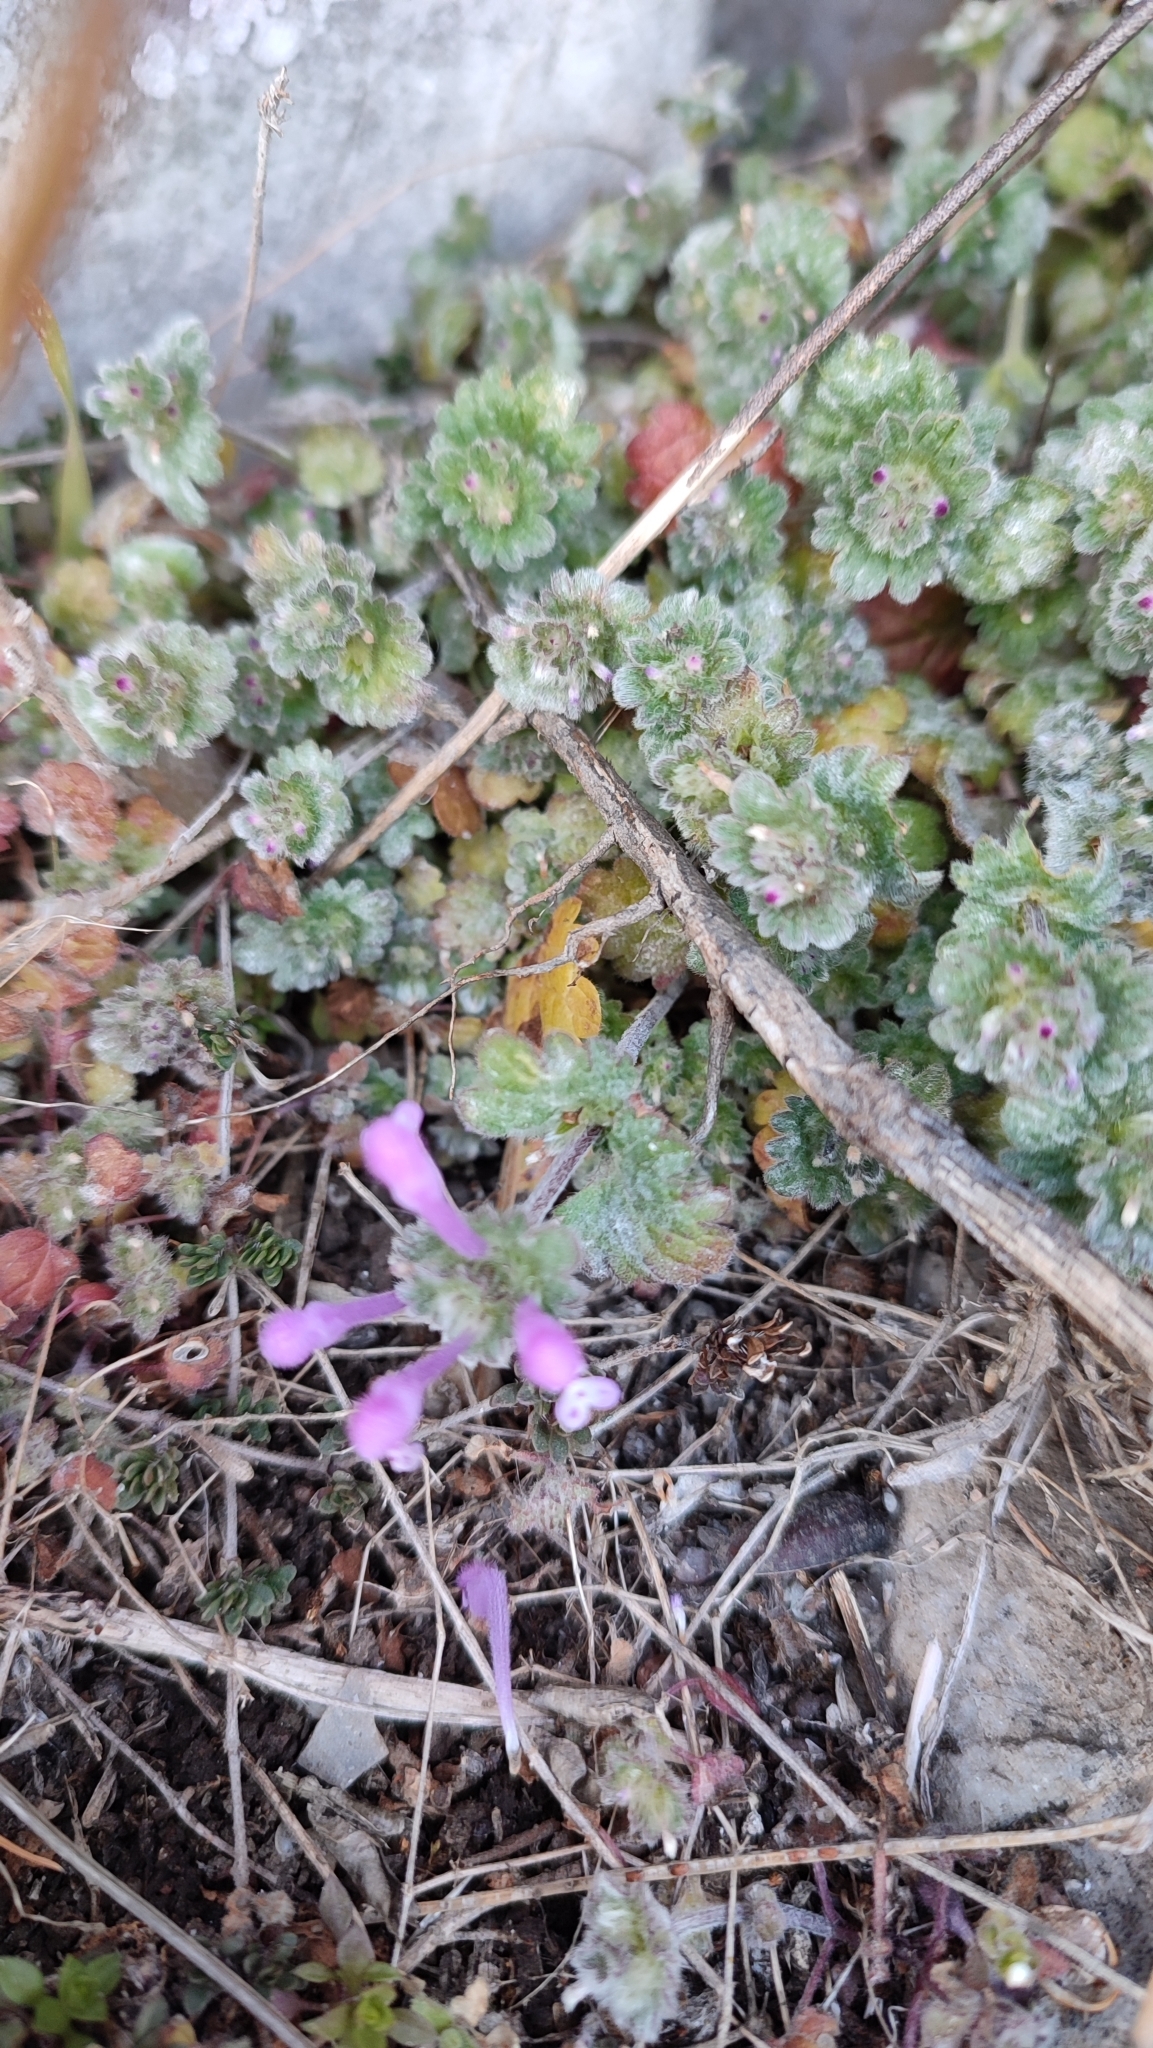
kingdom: Plantae
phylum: Tracheophyta
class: Magnoliopsida
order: Lamiales
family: Lamiaceae
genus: Lamium
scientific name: Lamium amplexicaule
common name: Henbit dead-nettle
